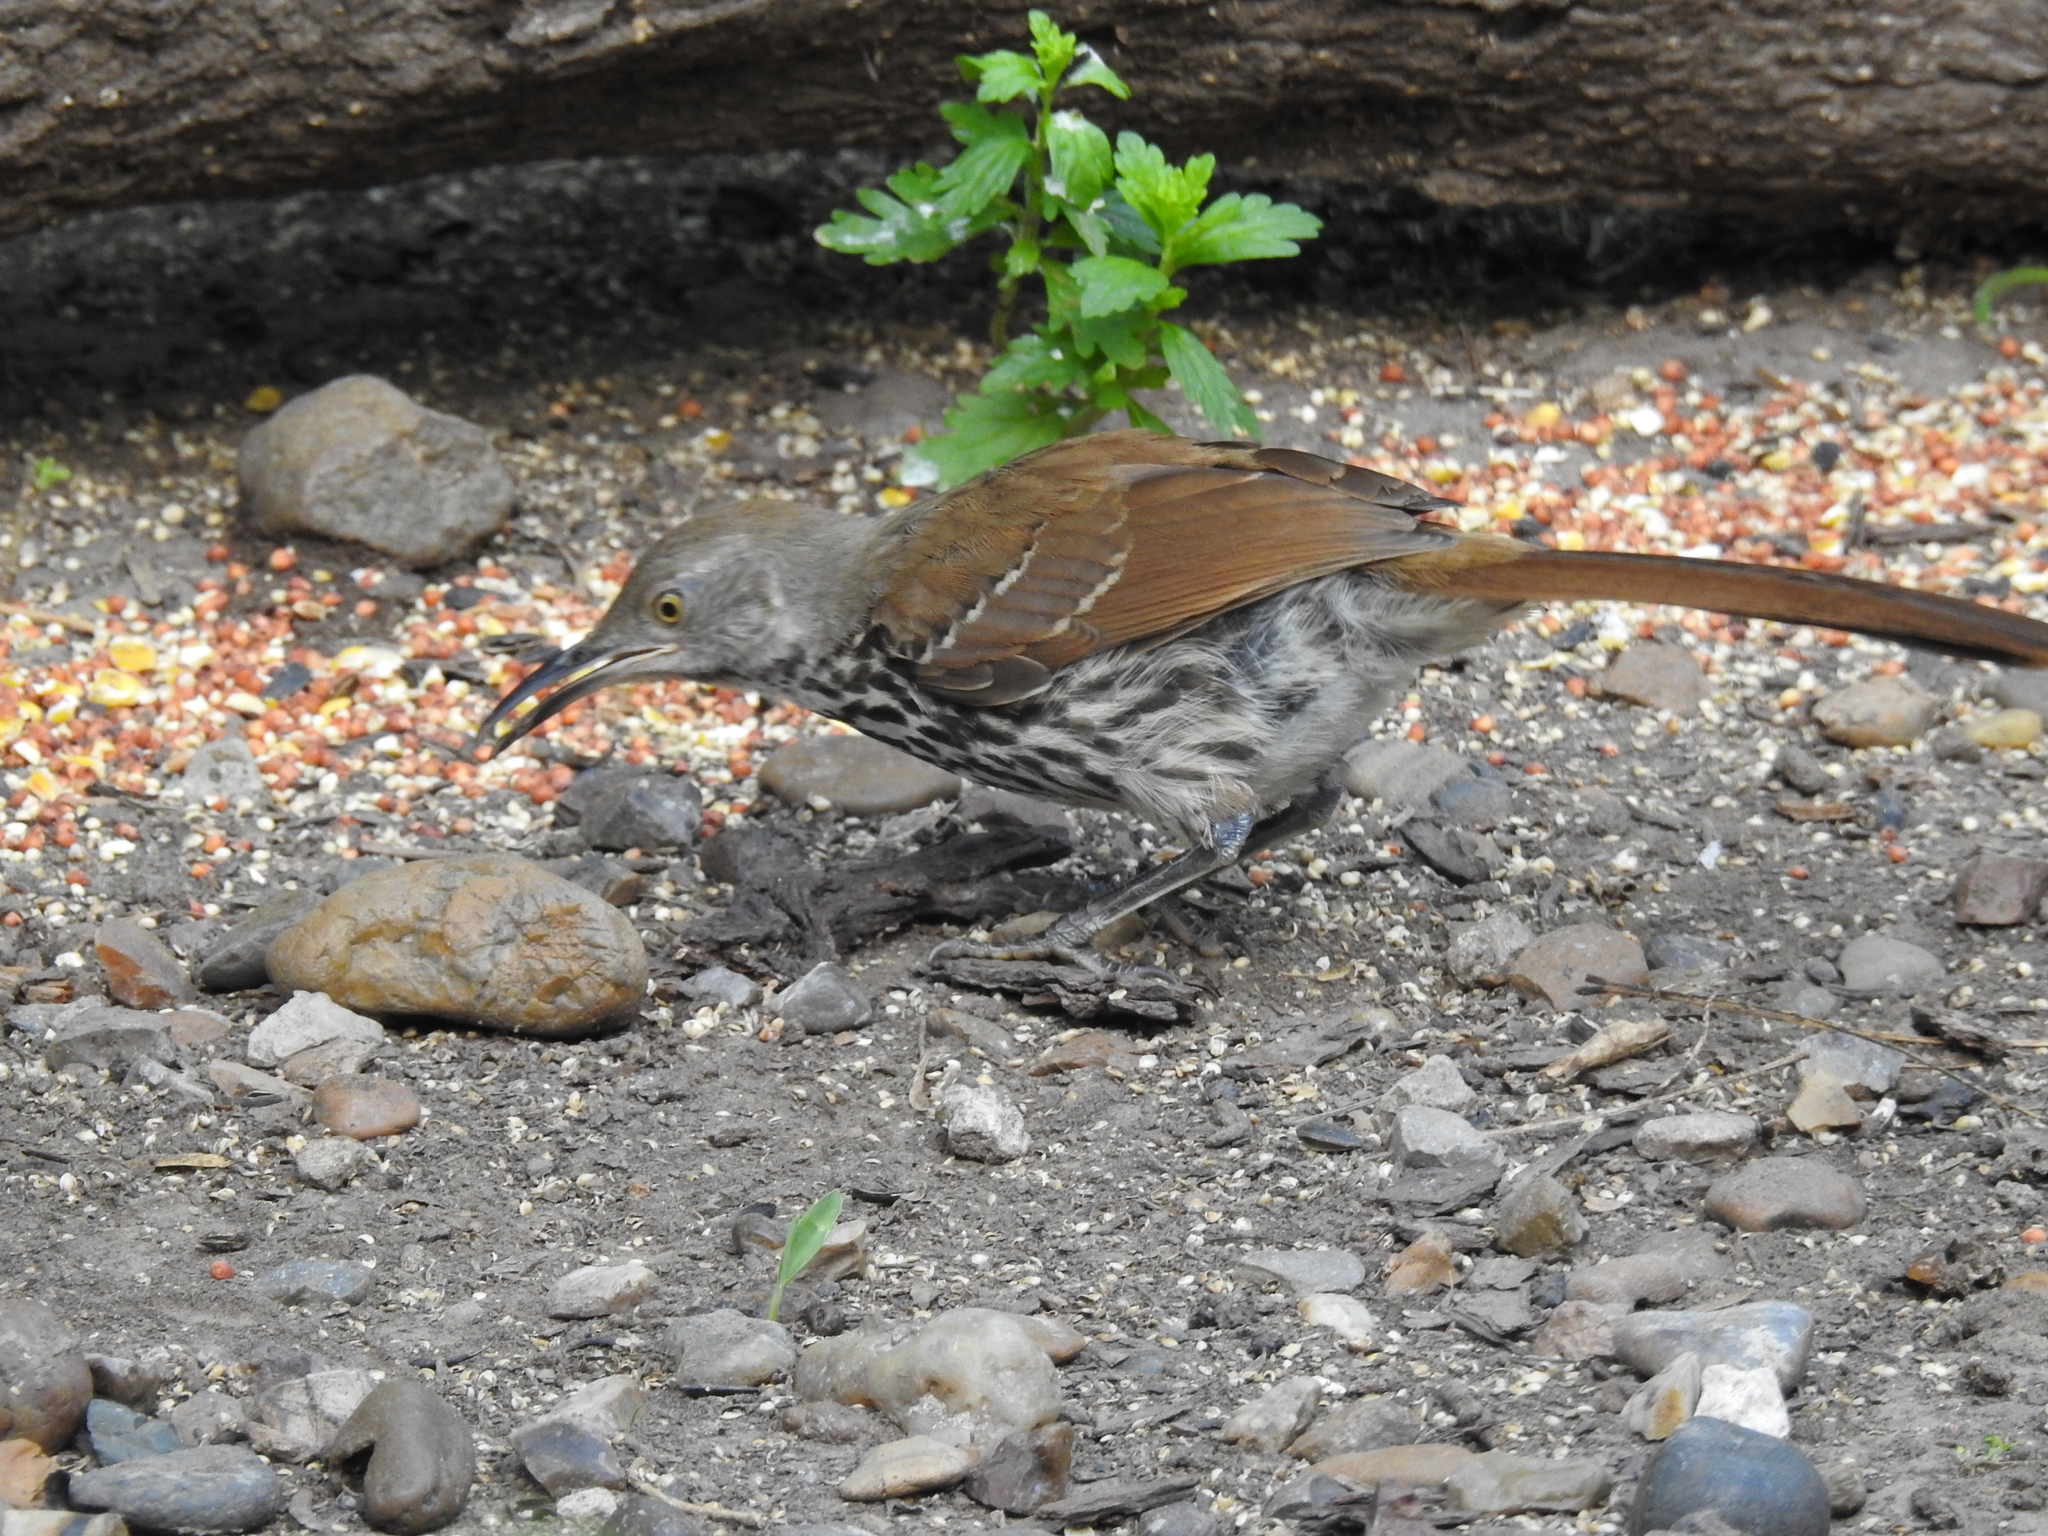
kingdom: Animalia
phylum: Chordata
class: Aves
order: Passeriformes
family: Mimidae
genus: Toxostoma
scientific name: Toxostoma longirostre
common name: Long-billed thrasher
